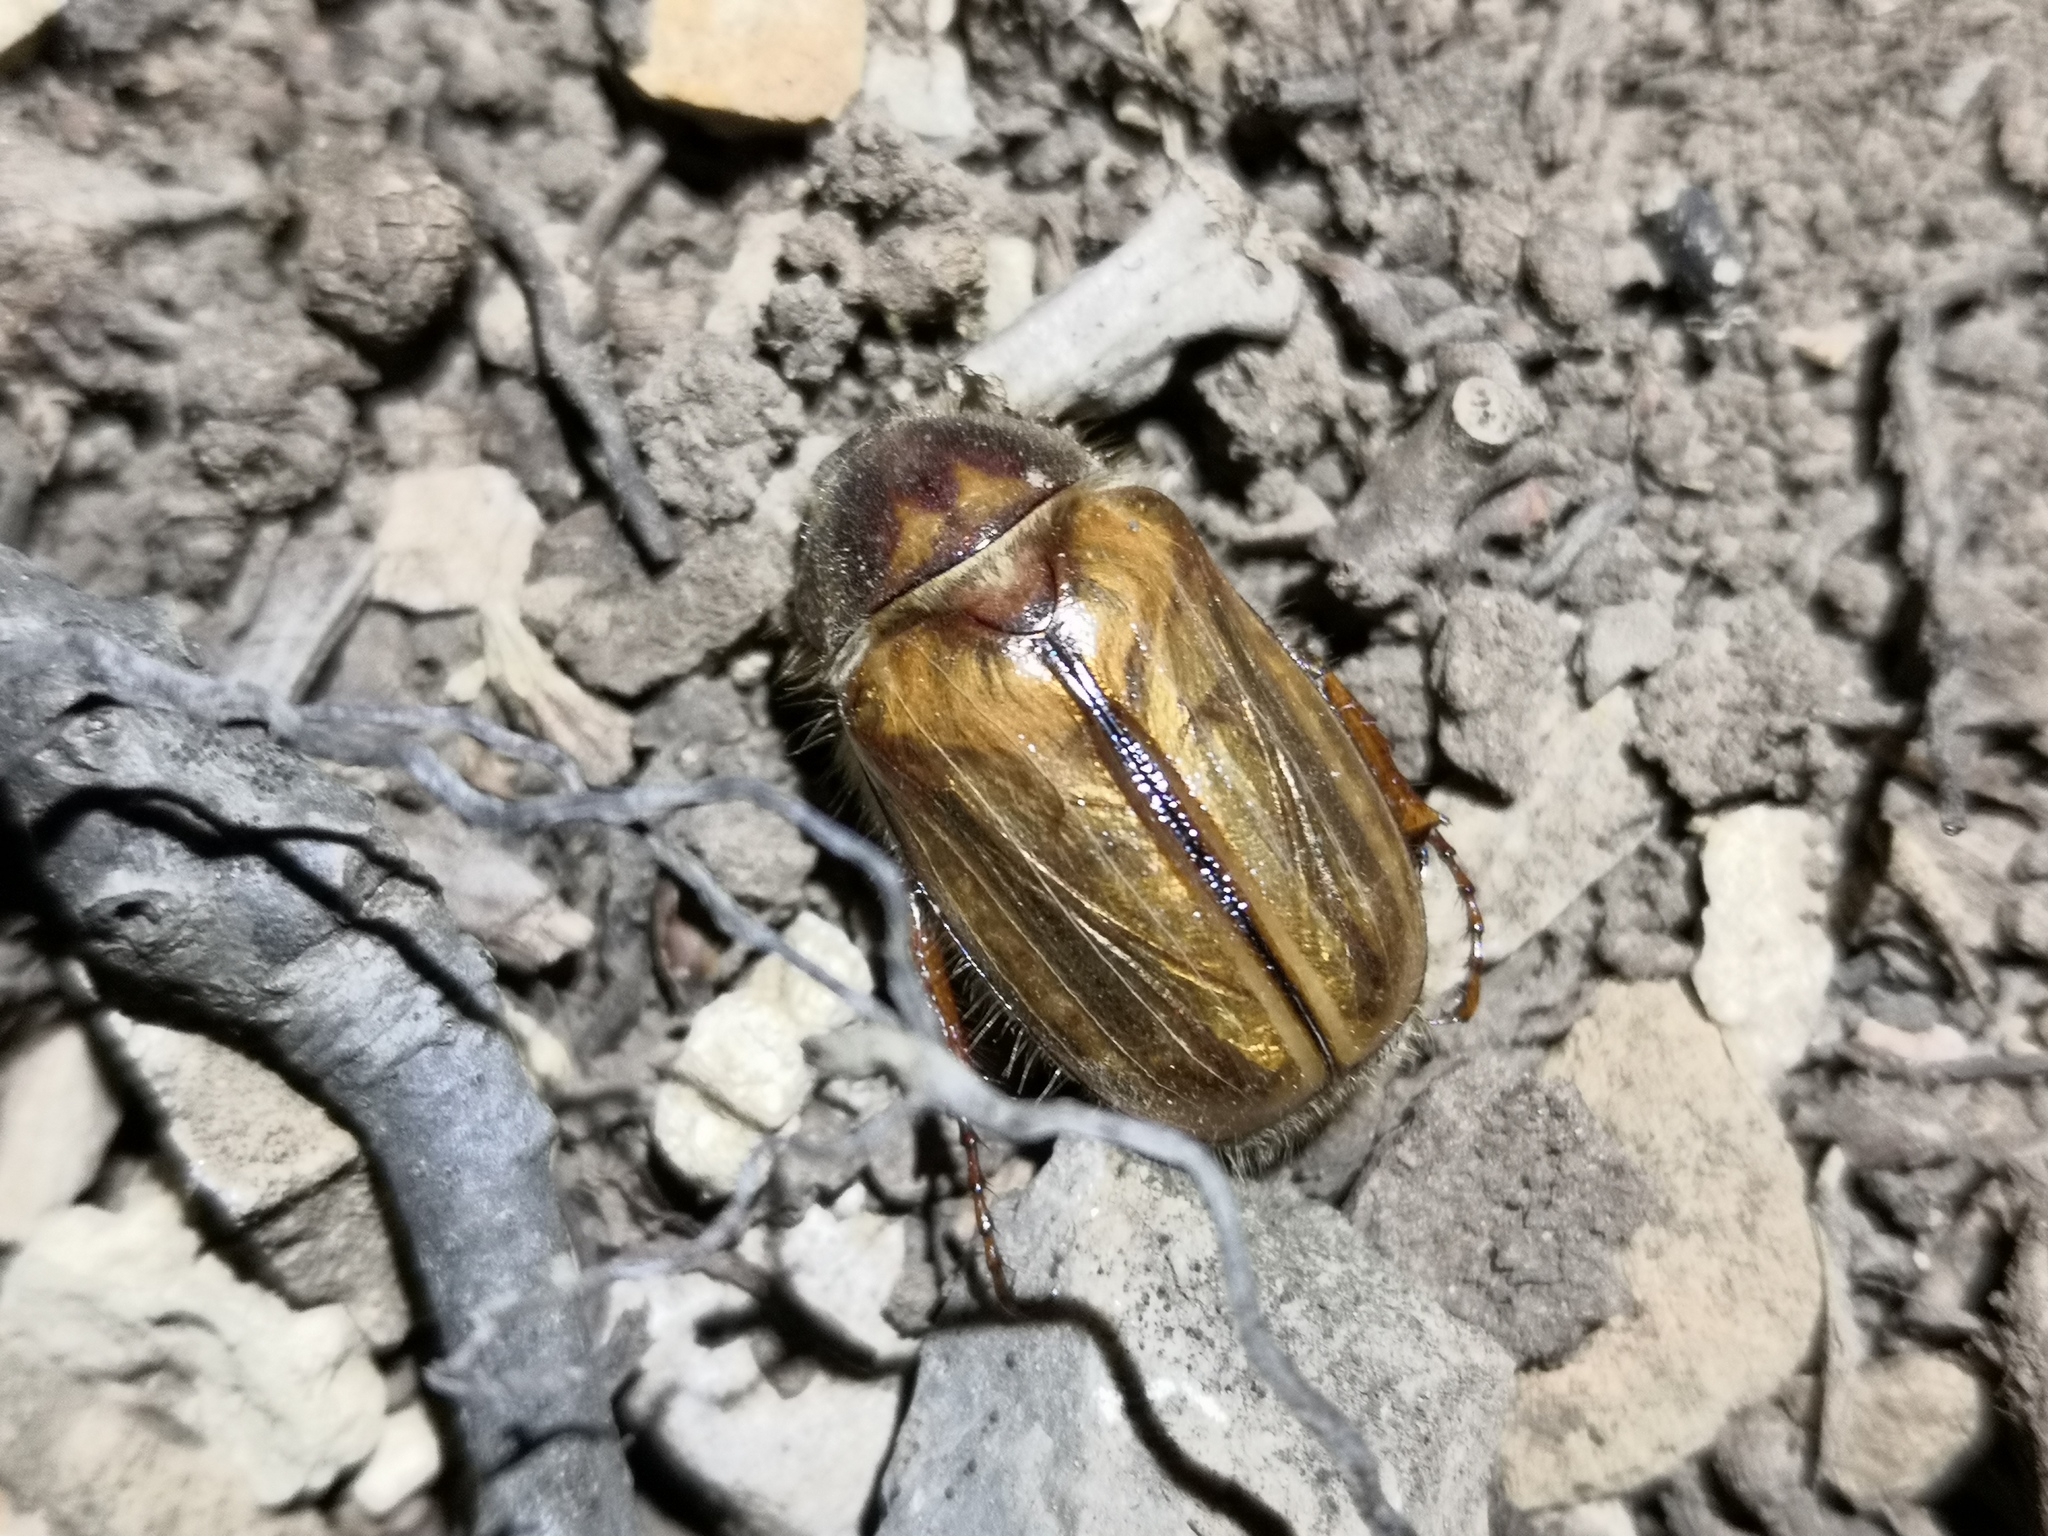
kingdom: Animalia
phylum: Arthropoda
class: Insecta
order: Coleoptera
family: Scarabaeidae
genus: Amphimallon
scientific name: Amphimallon solstitiale
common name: Summer chafer
